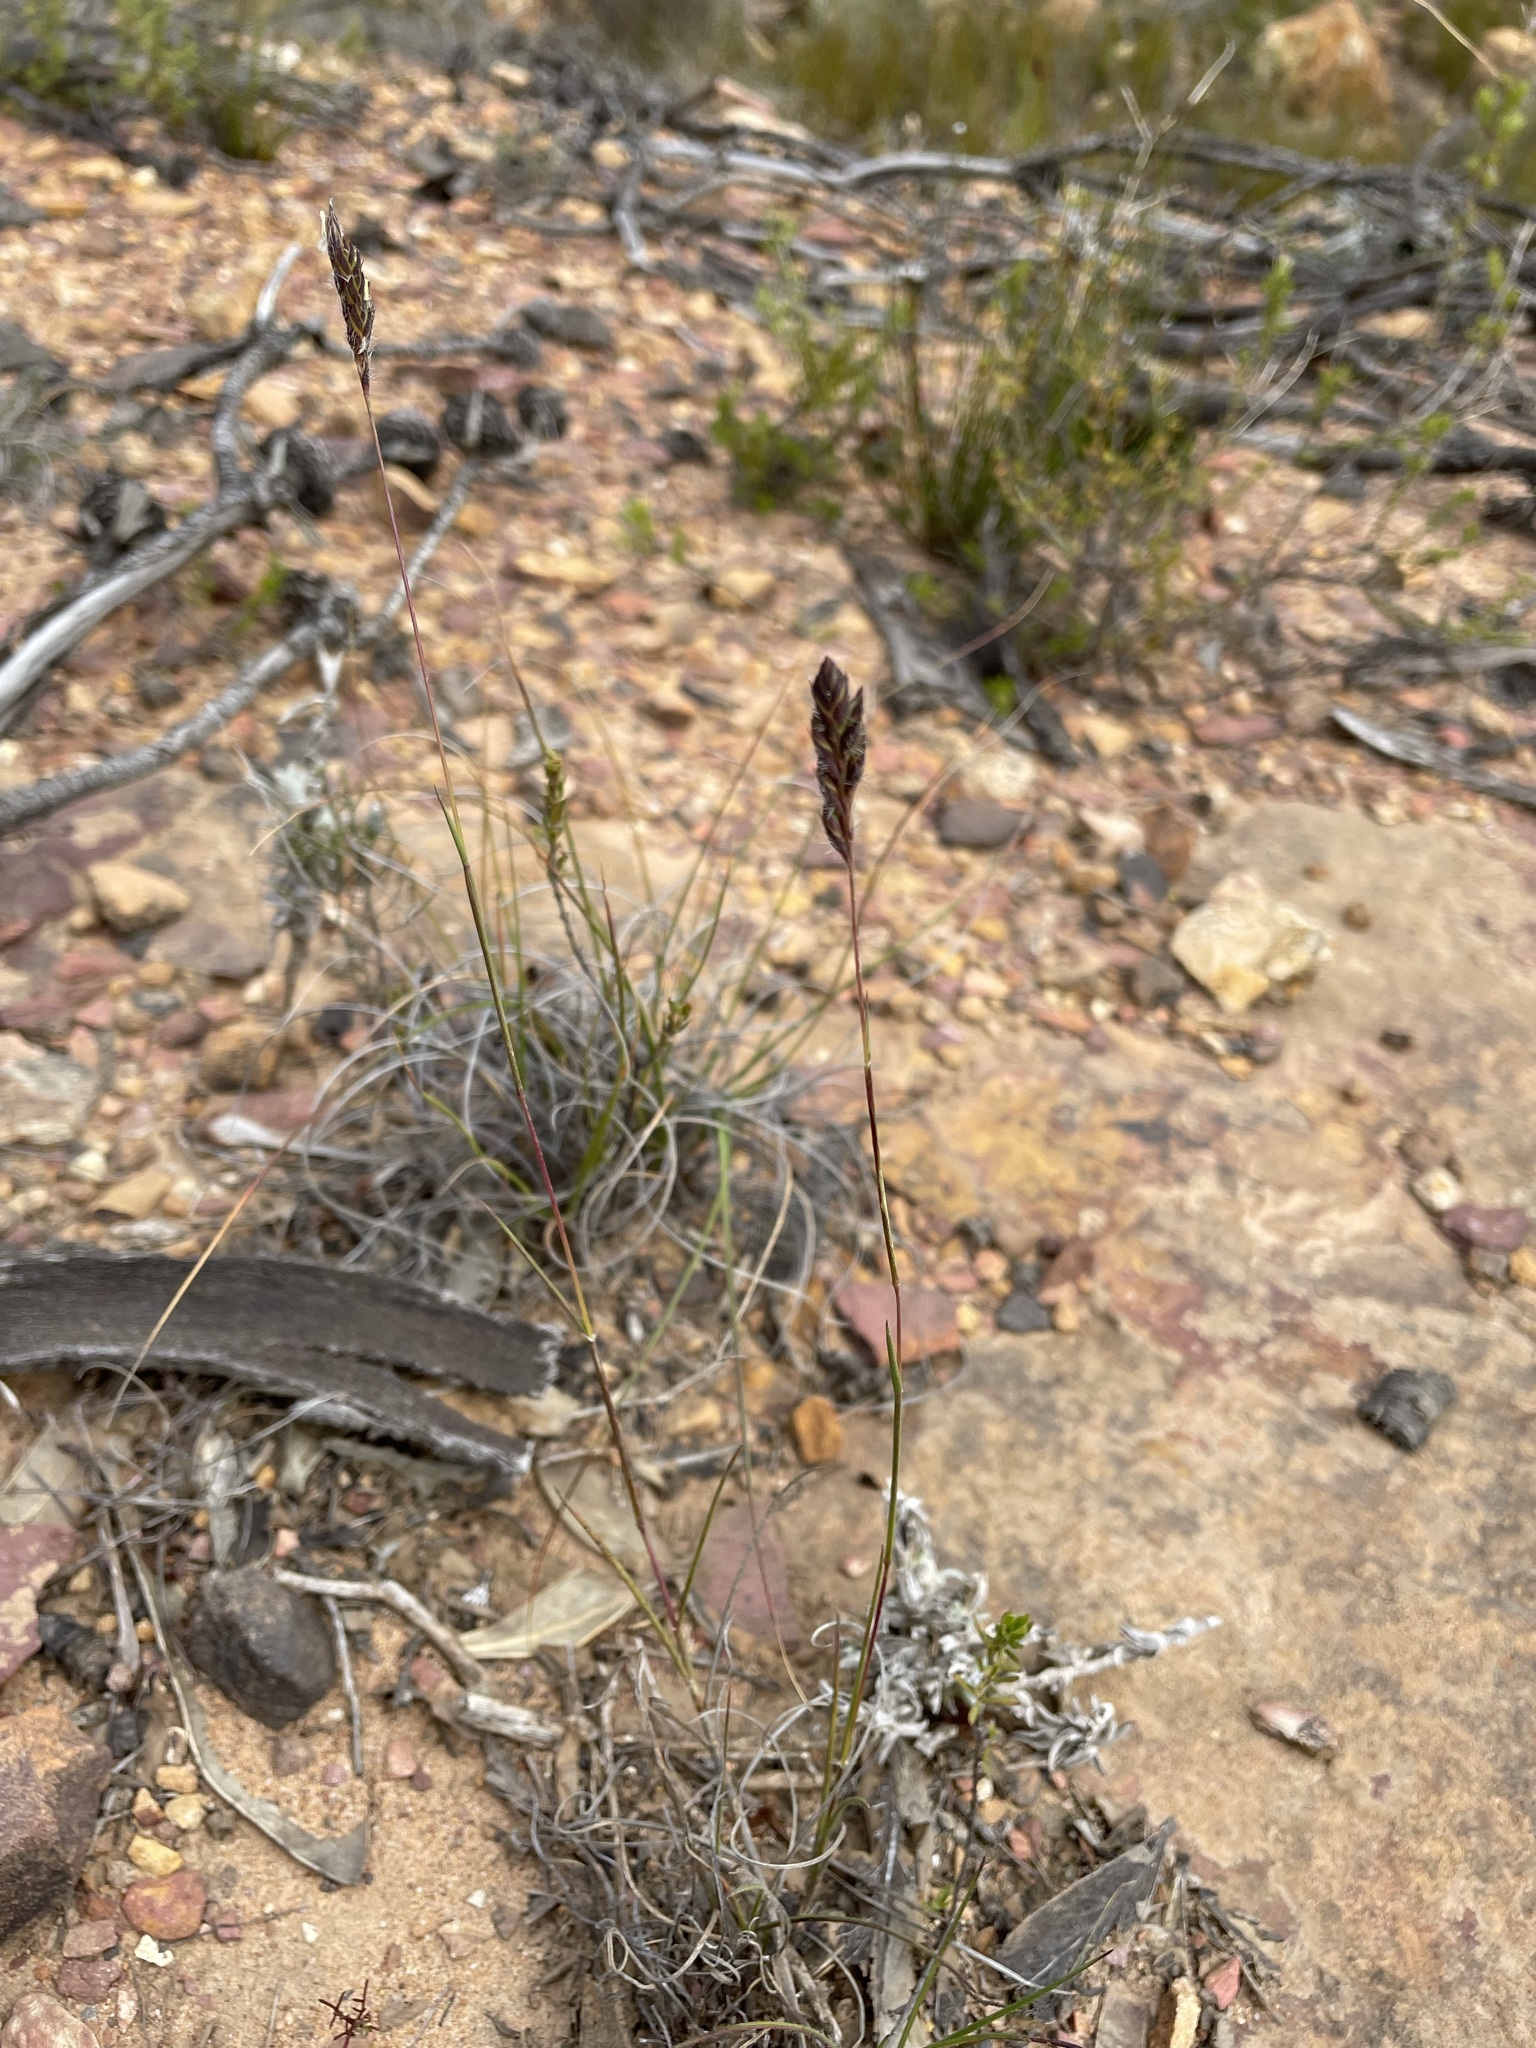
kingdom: Plantae
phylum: Tracheophyta
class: Liliopsida
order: Poales
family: Poaceae
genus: Tribolium
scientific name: Tribolium brachystachyum
